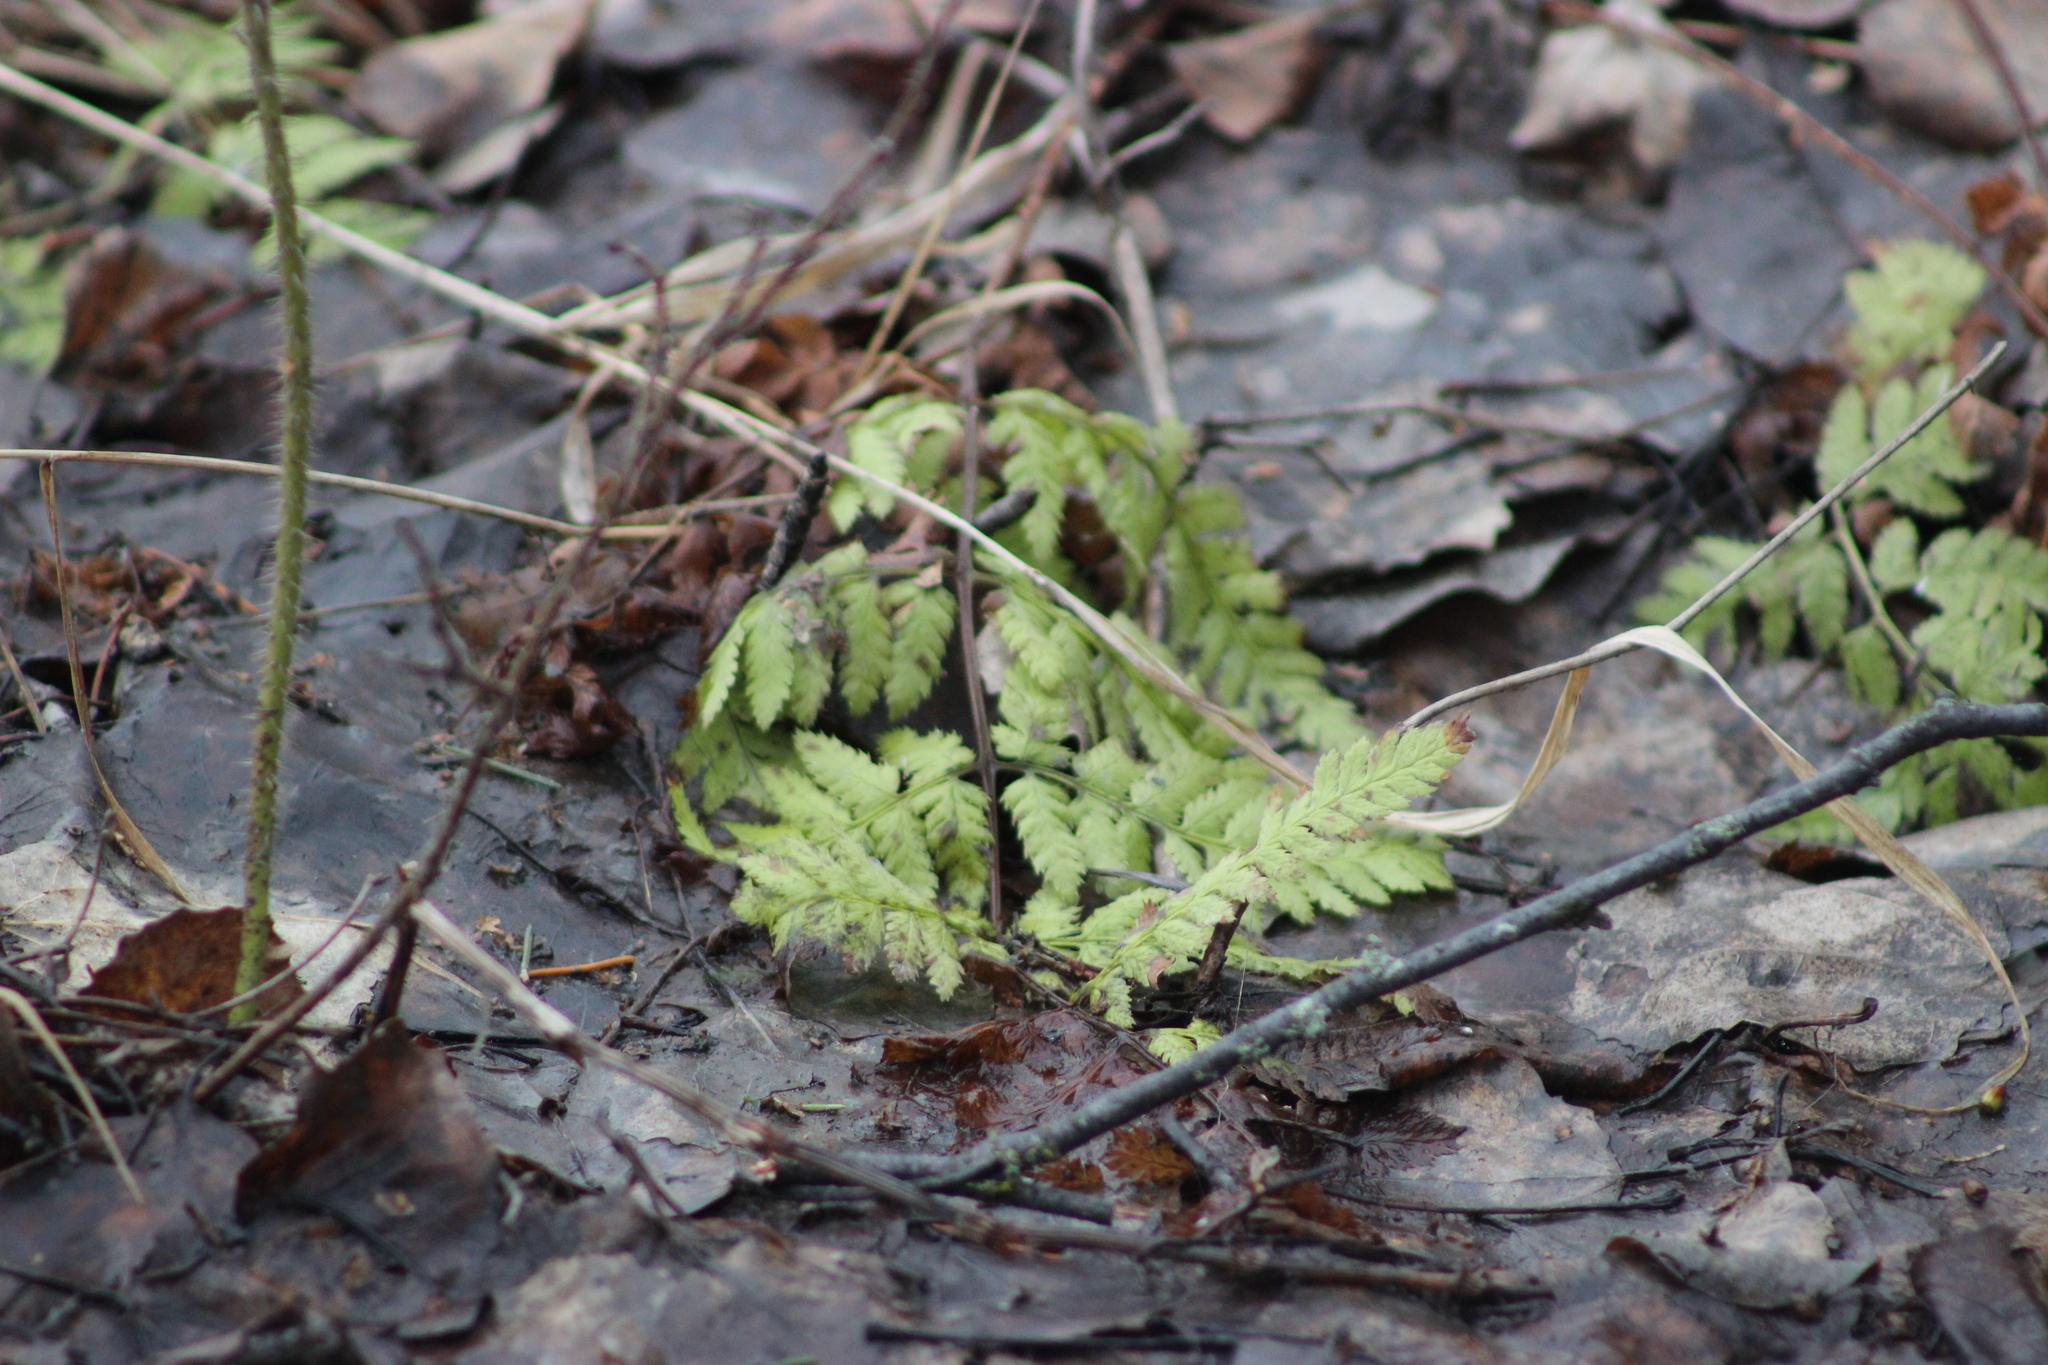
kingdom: Plantae
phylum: Tracheophyta
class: Polypodiopsida
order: Polypodiales
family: Dryopteridaceae
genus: Dryopteris
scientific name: Dryopteris carthusiana
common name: Narrow buckler-fern
